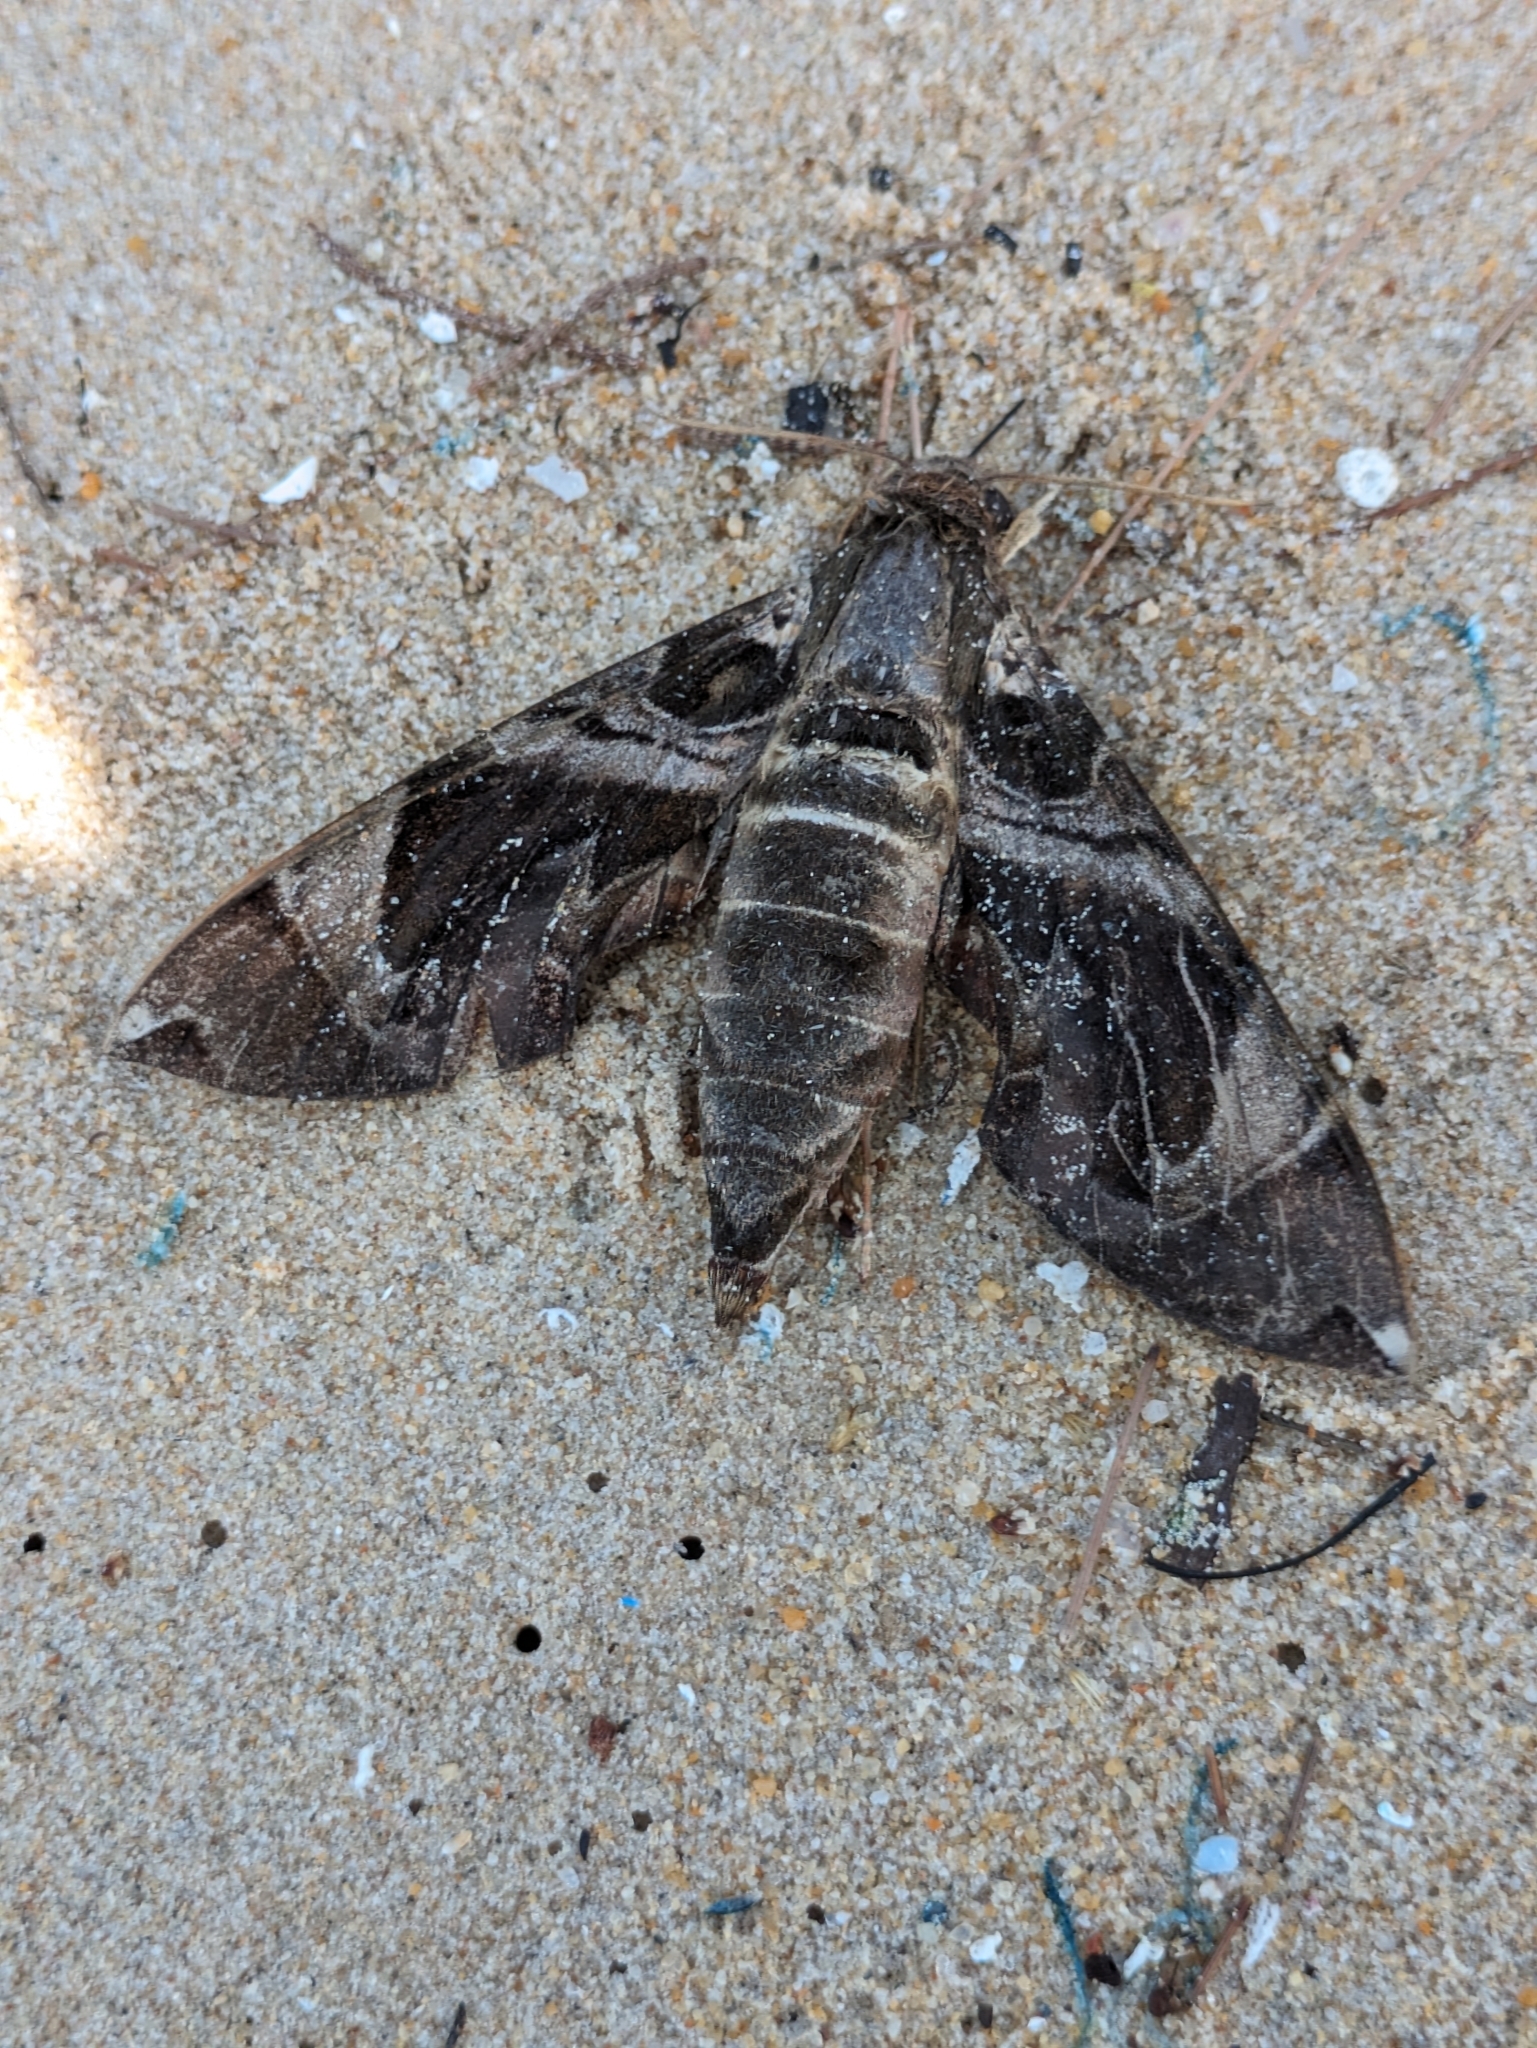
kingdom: Animalia
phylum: Arthropoda
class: Insecta
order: Lepidoptera
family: Sphingidae
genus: Daphnis
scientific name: Daphnis hypothous
